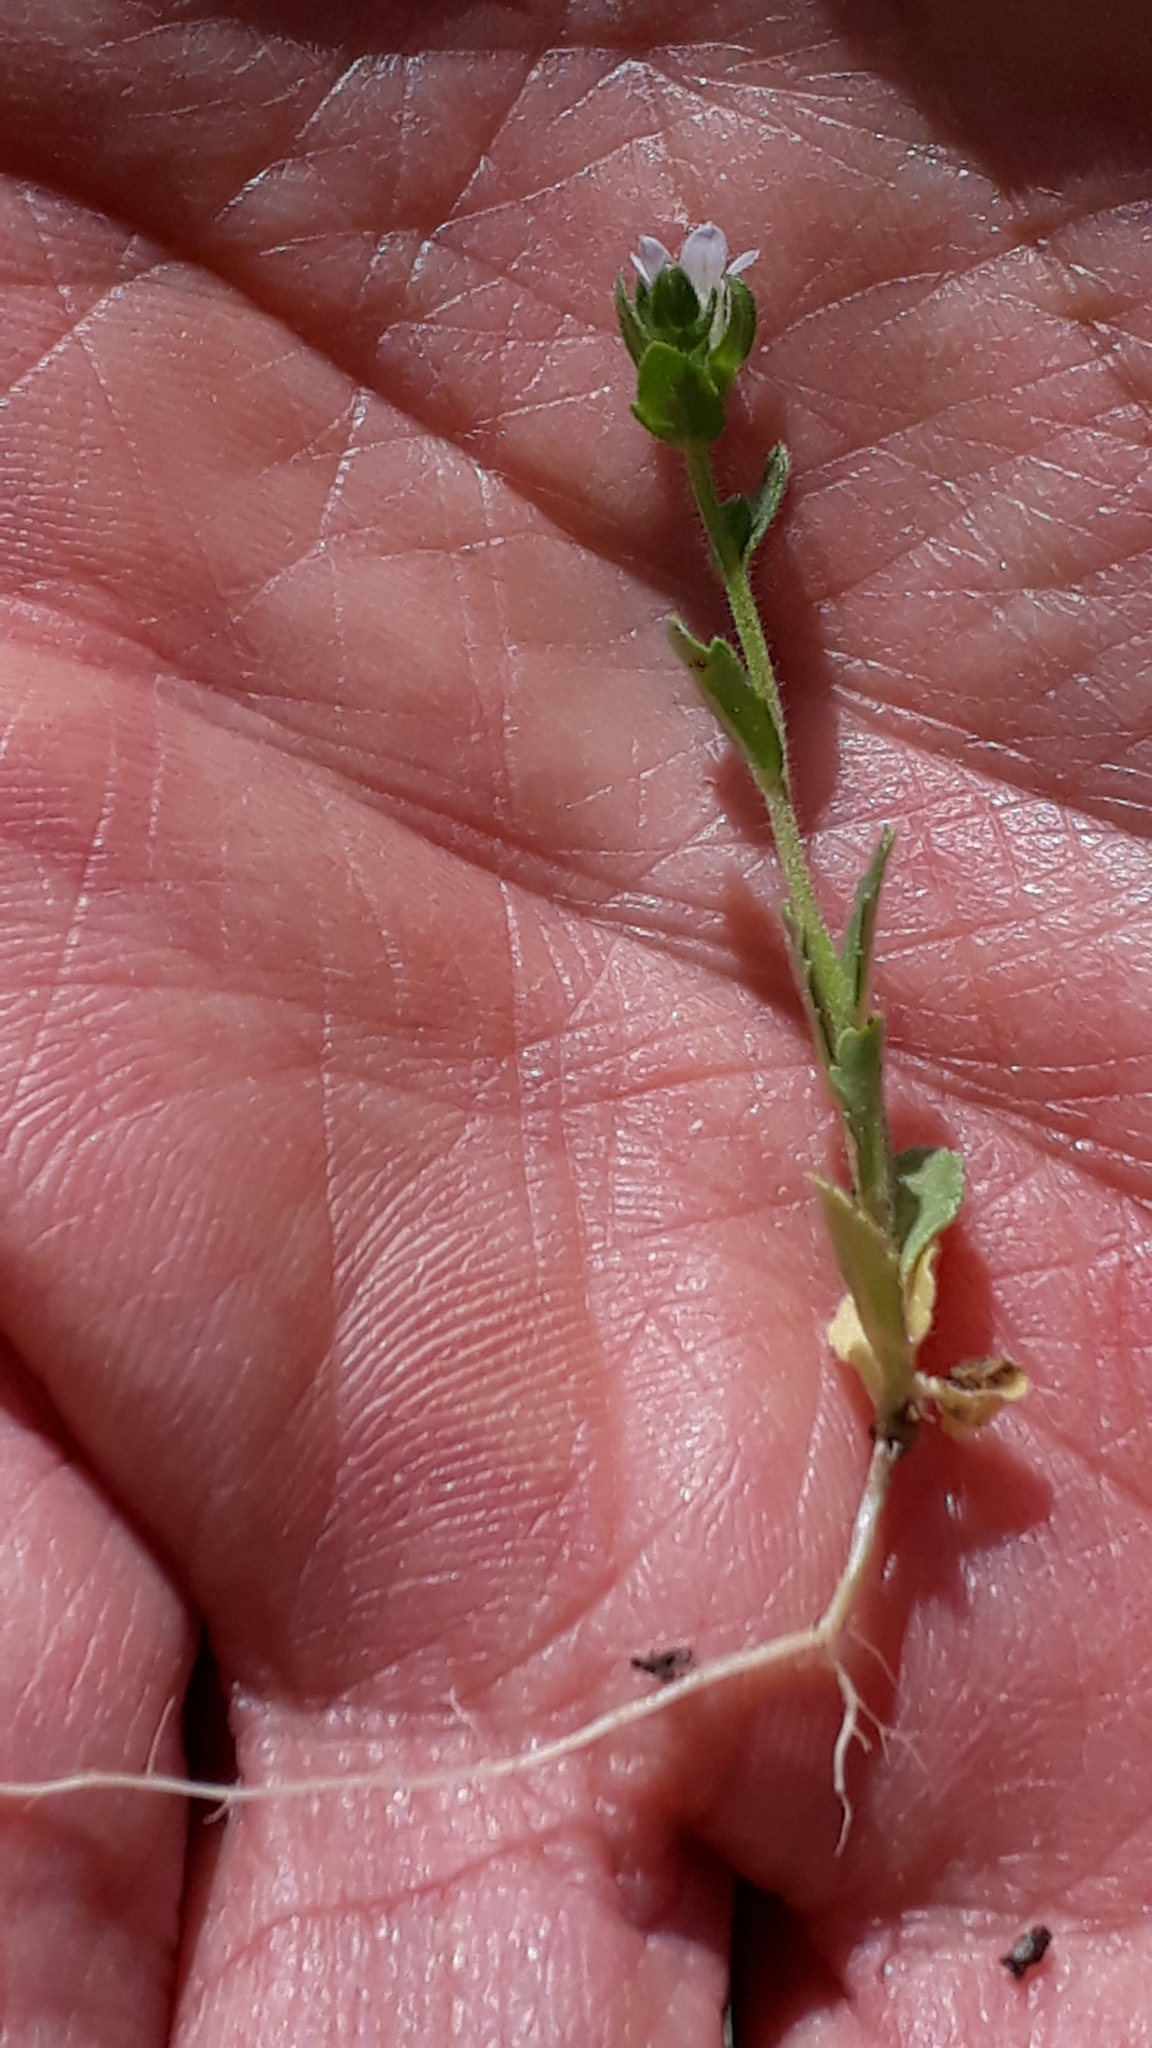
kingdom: Plantae
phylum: Tracheophyta
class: Magnoliopsida
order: Asterales
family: Campanulaceae
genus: Campanula
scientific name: Campanula erinus
